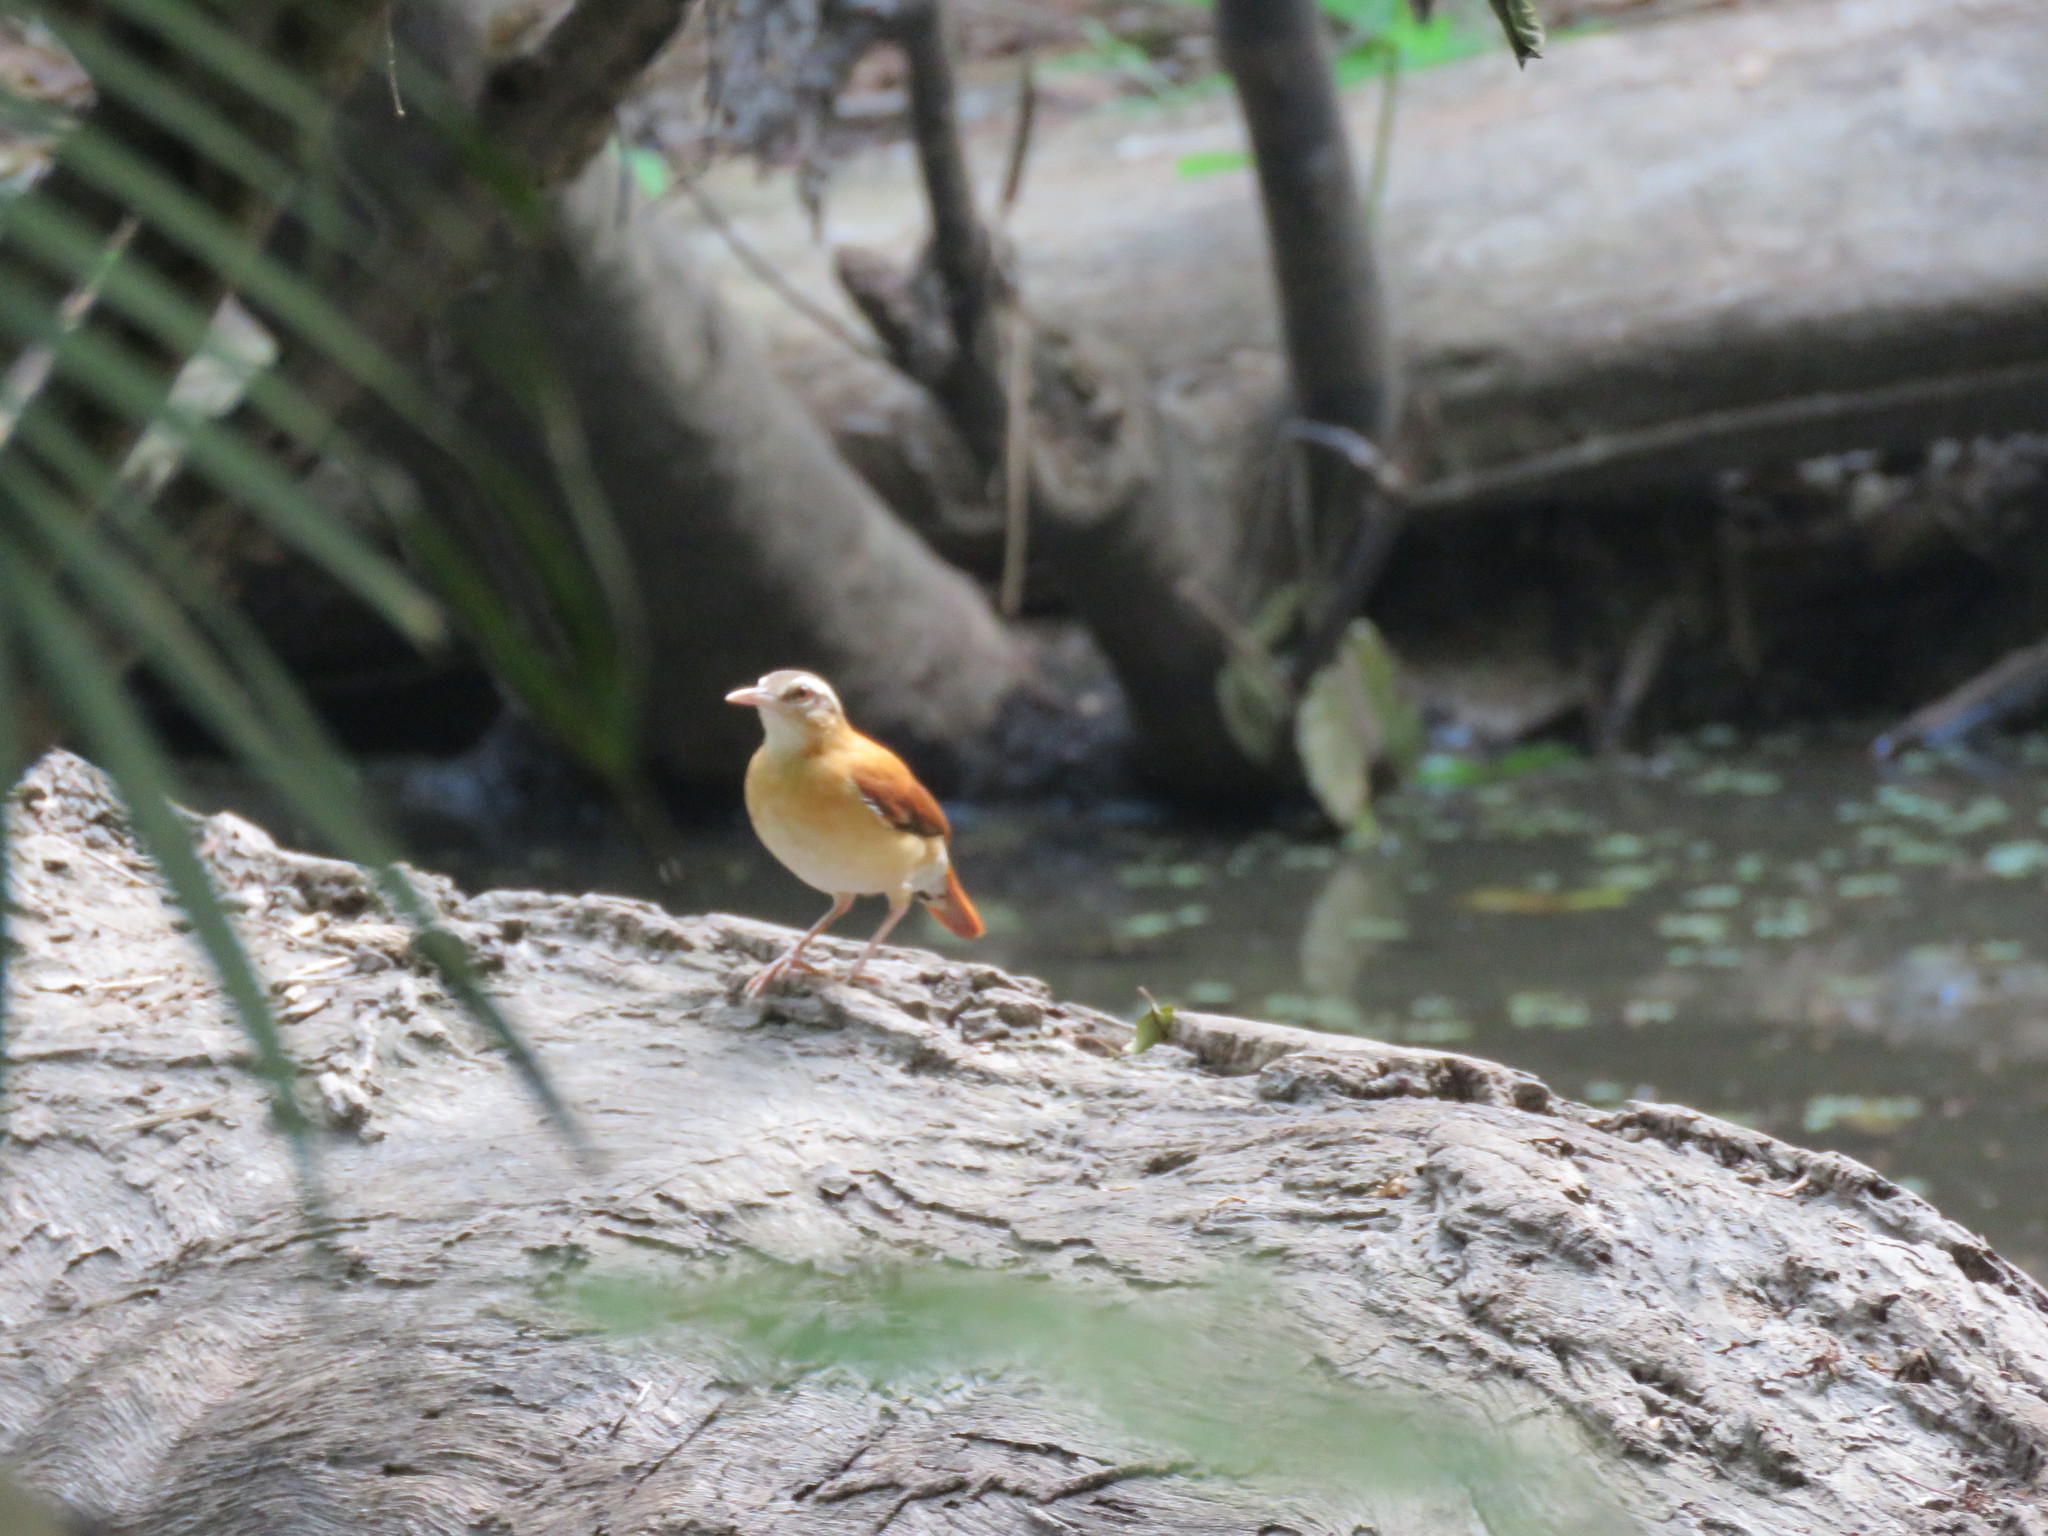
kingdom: Animalia
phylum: Chordata
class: Aves
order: Passeriformes
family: Furnariidae
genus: Furnarius
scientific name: Furnarius leucopus
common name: Pale-legged hornero
